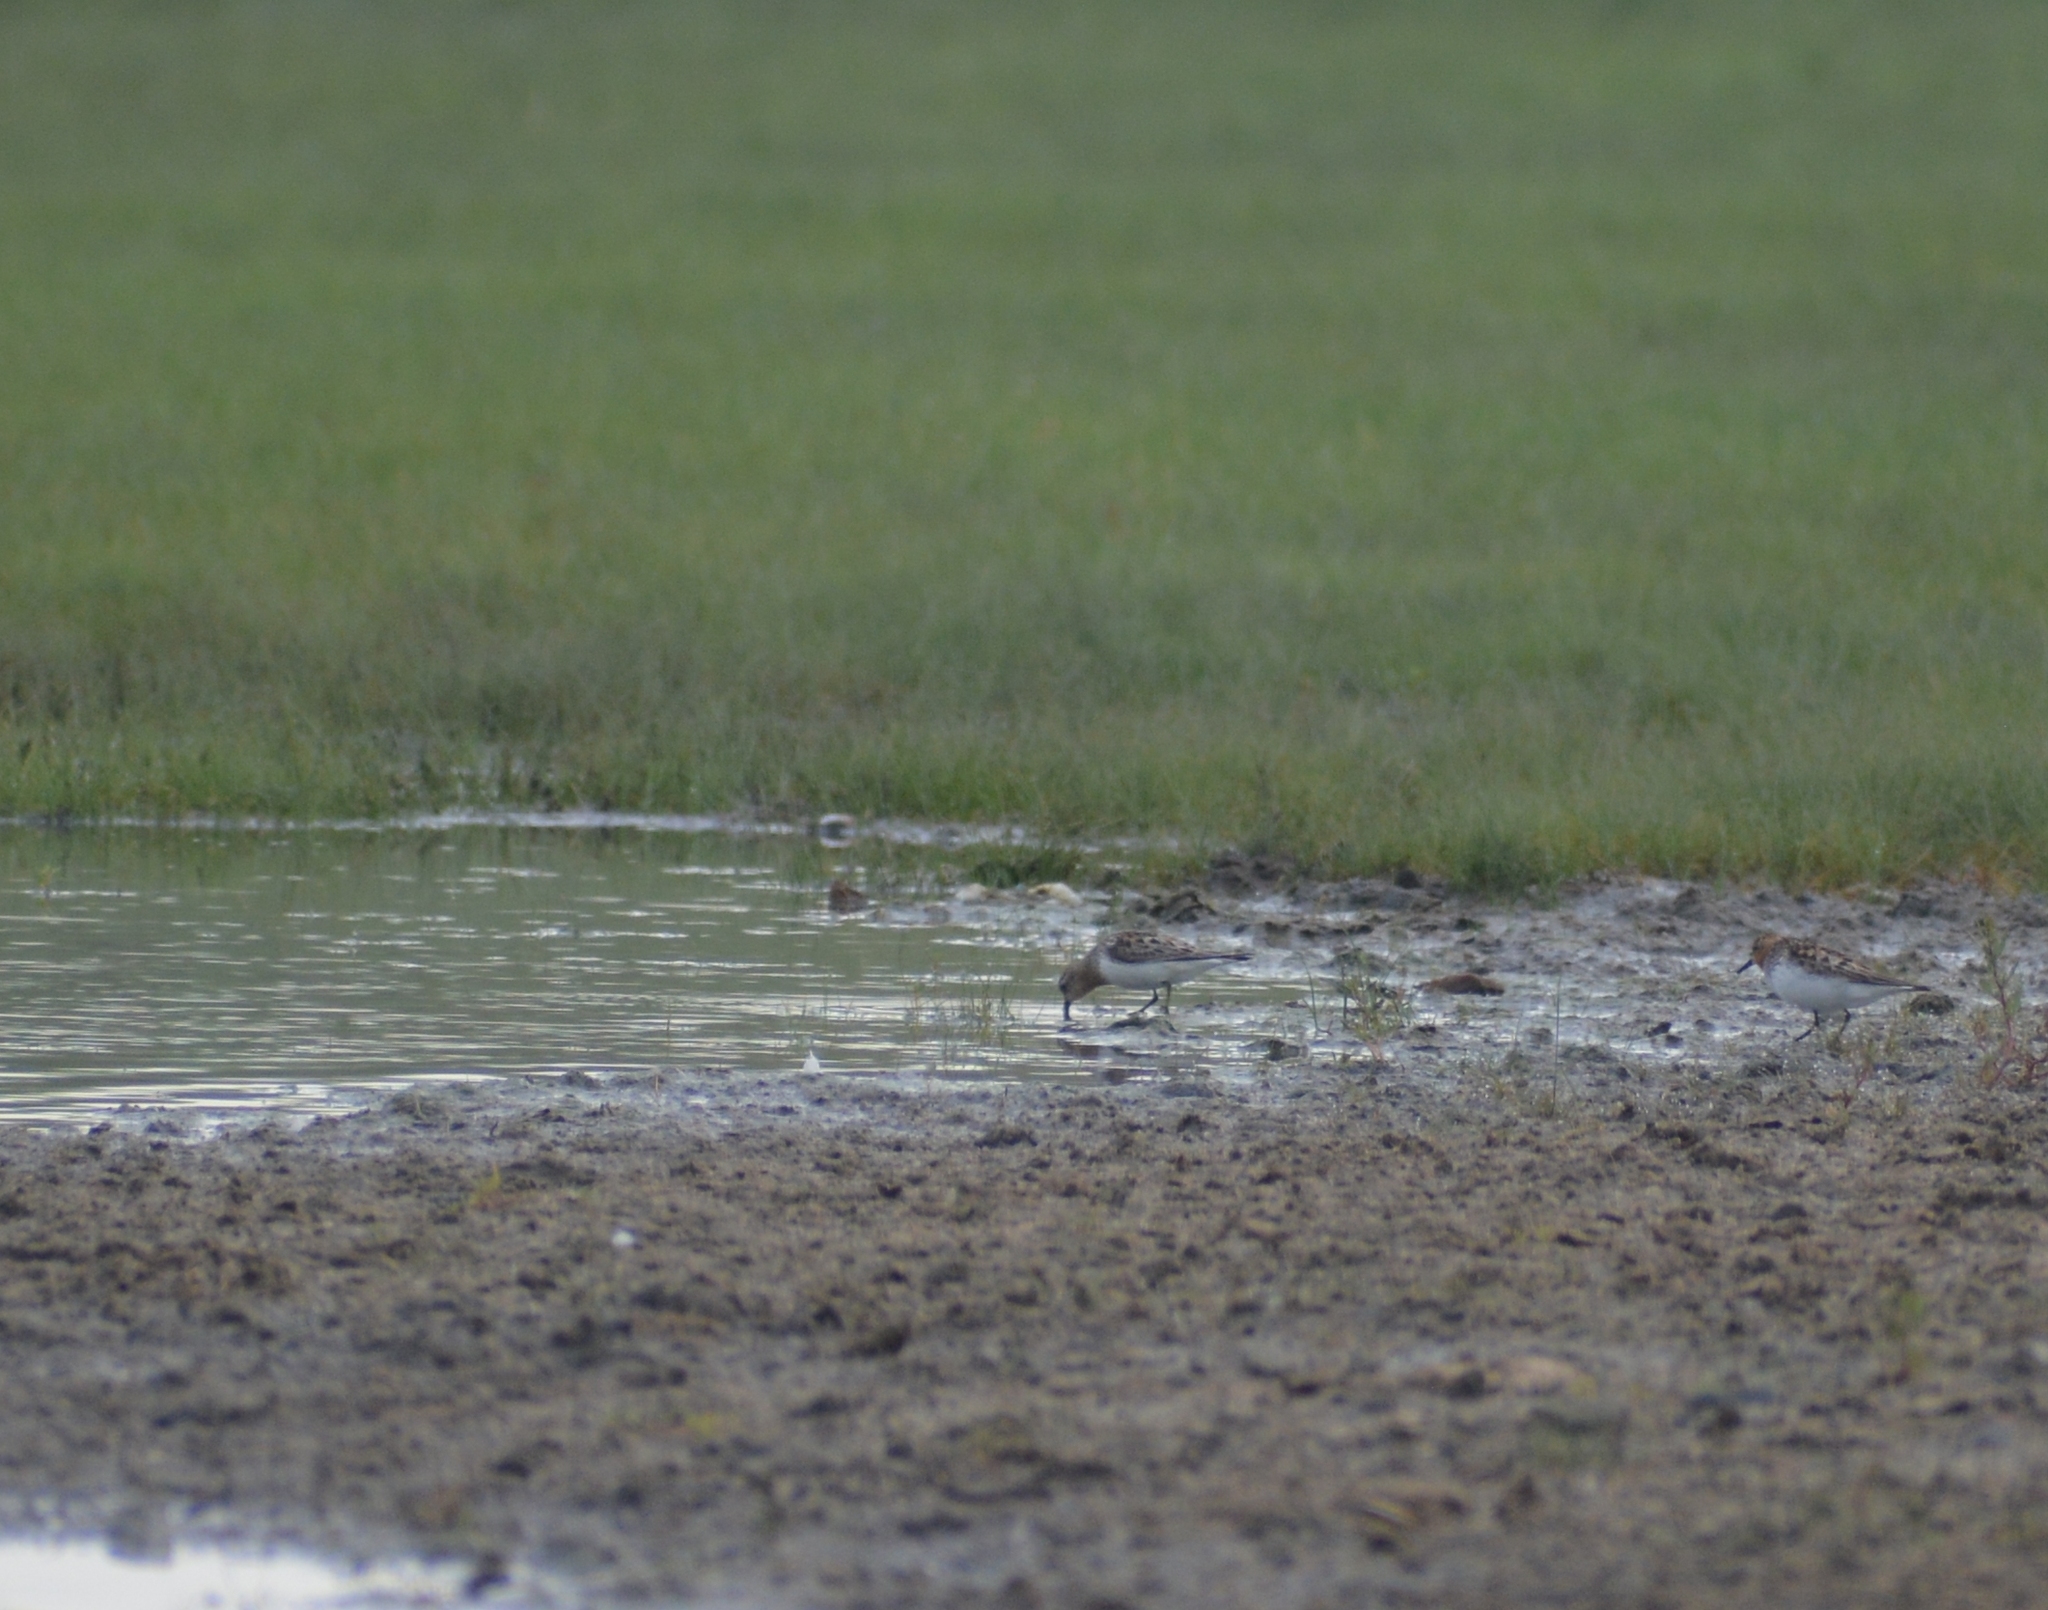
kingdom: Animalia
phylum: Chordata
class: Aves
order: Charadriiformes
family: Scolopacidae
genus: Calidris
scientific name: Calidris ruficollis
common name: Red-necked stint
